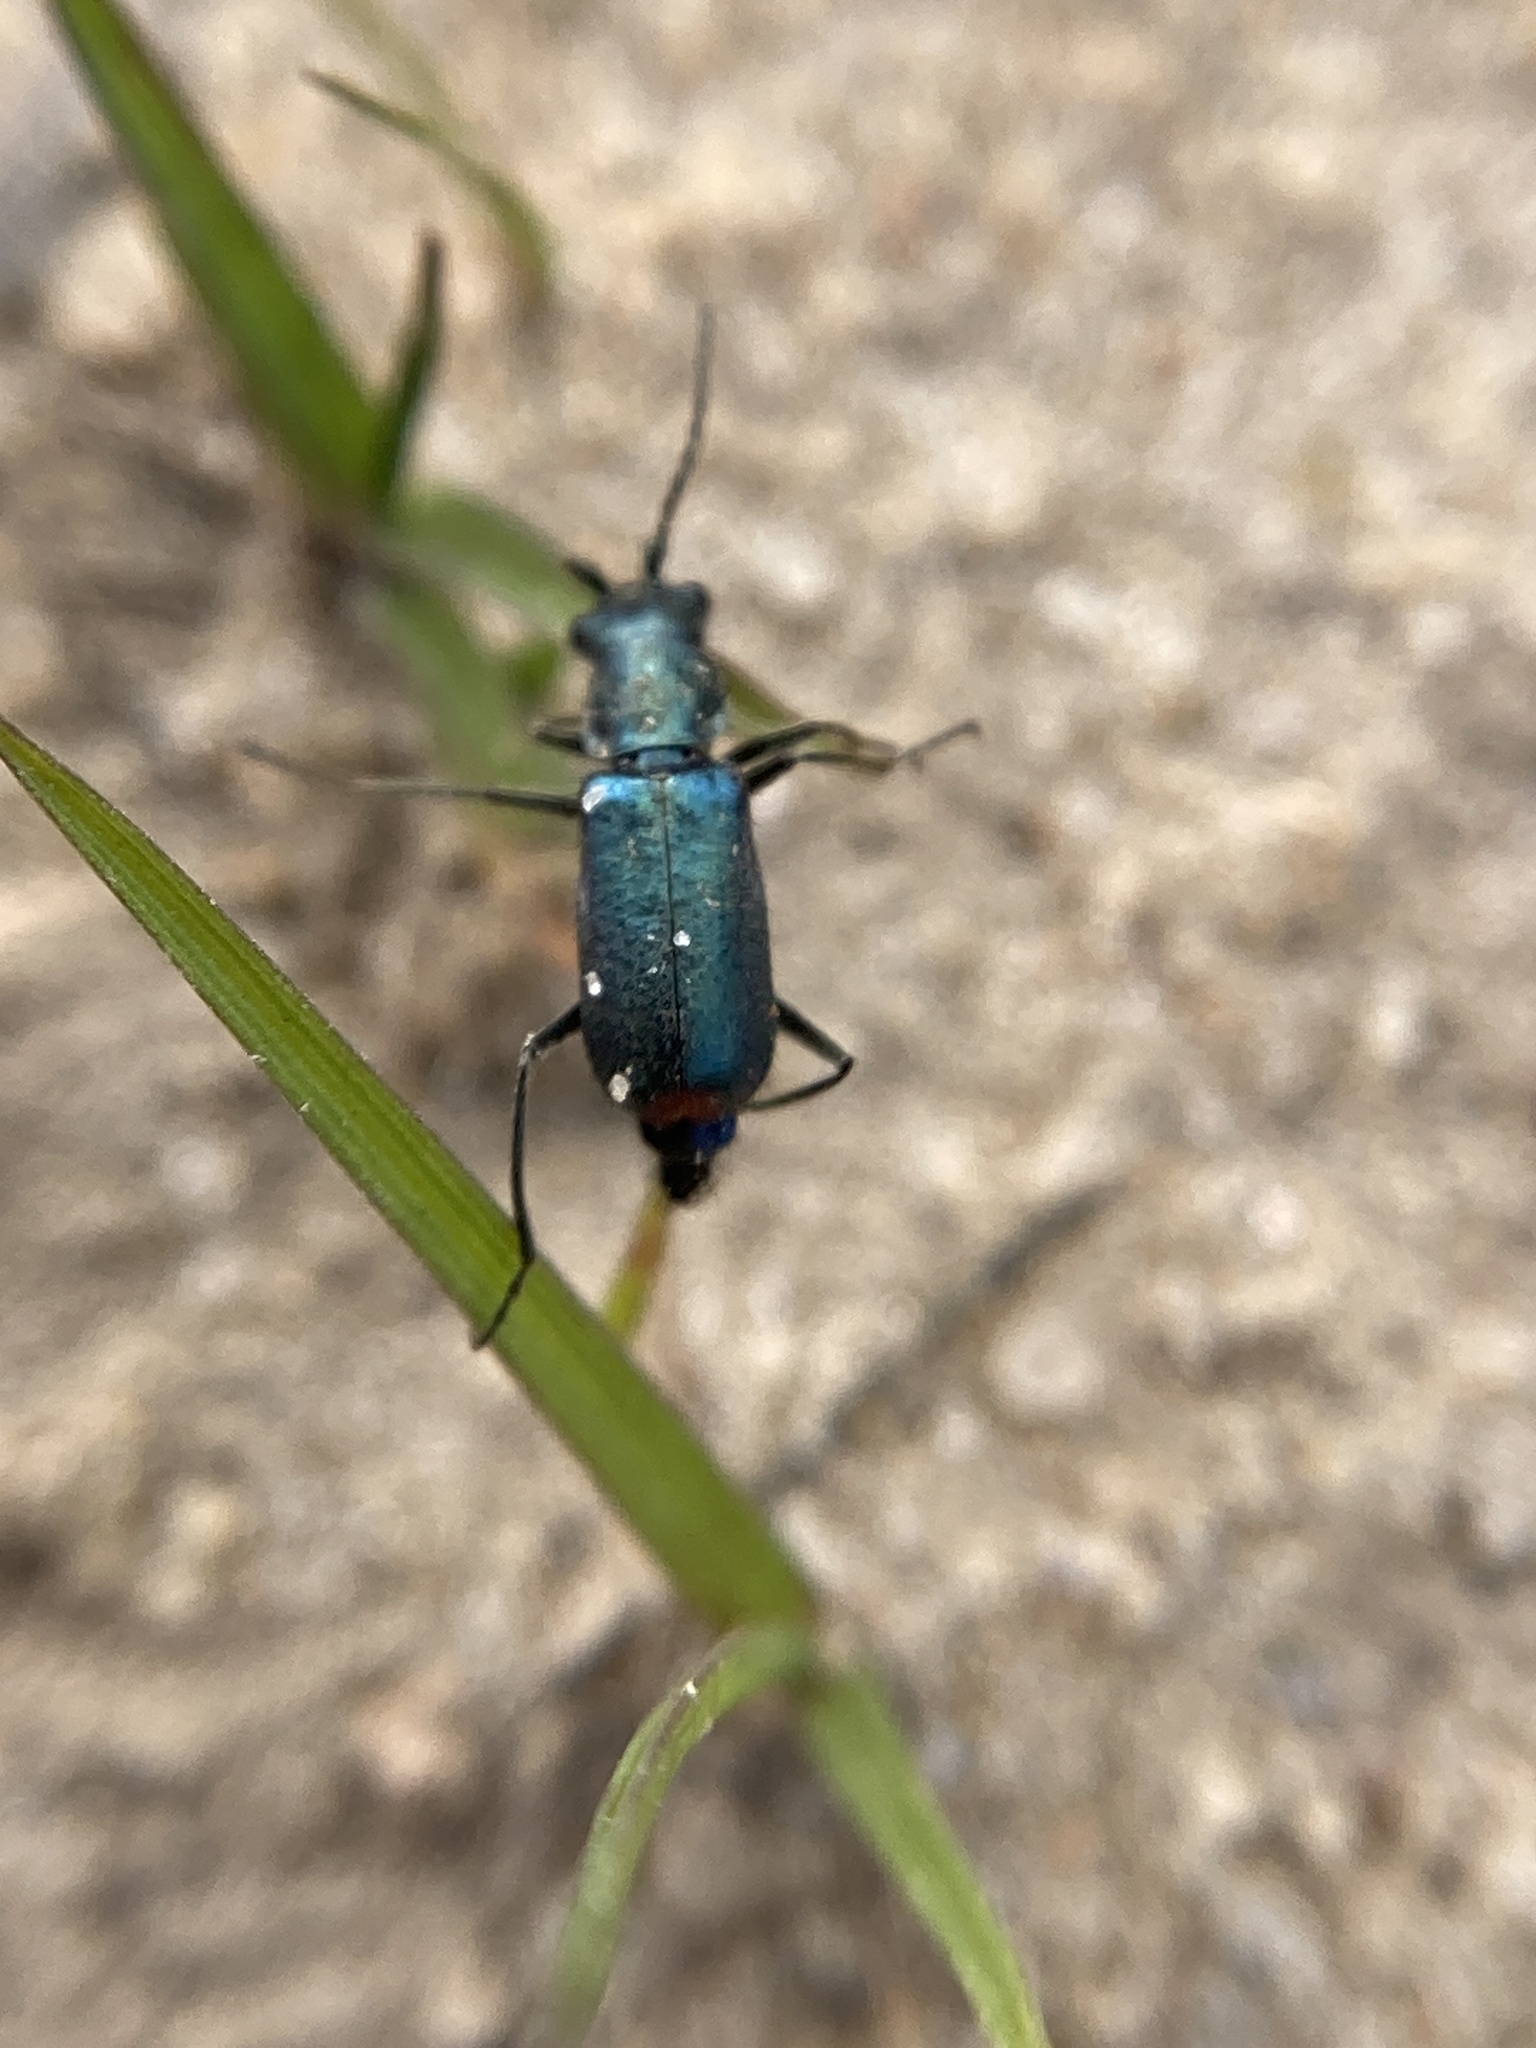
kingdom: Animalia
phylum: Arthropoda
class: Insecta
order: Coleoptera
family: Malachiidae
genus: Cordylepherus
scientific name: Cordylepherus viridis
